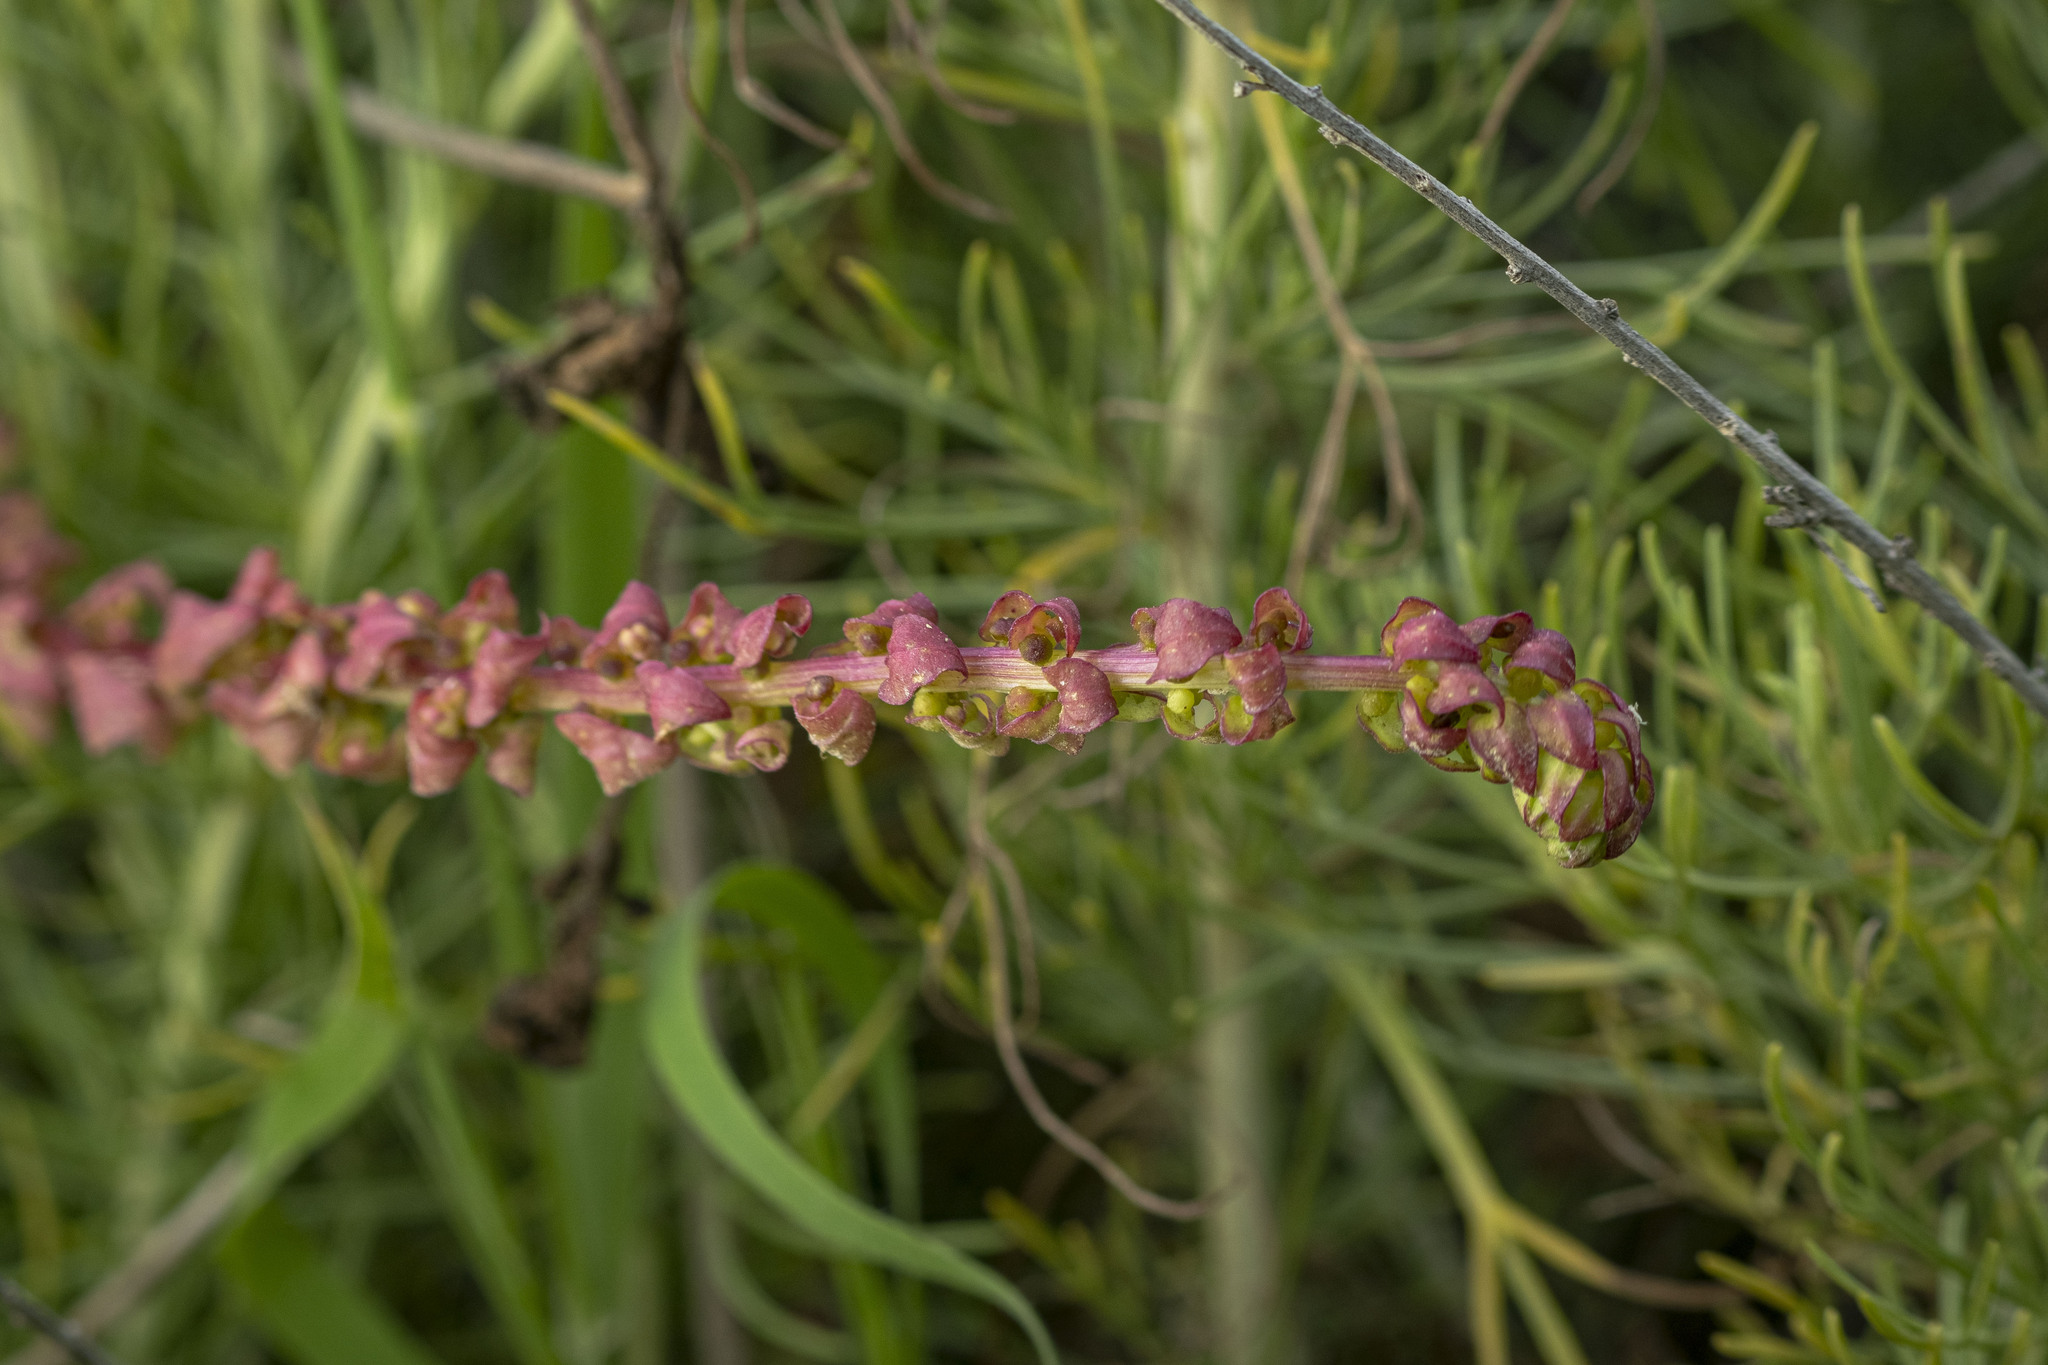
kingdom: Plantae
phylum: Tracheophyta
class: Magnoliopsida
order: Caryophyllales
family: Amaranthaceae
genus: Aphanisma
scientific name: Aphanisma blitoides
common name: Aphanisma
